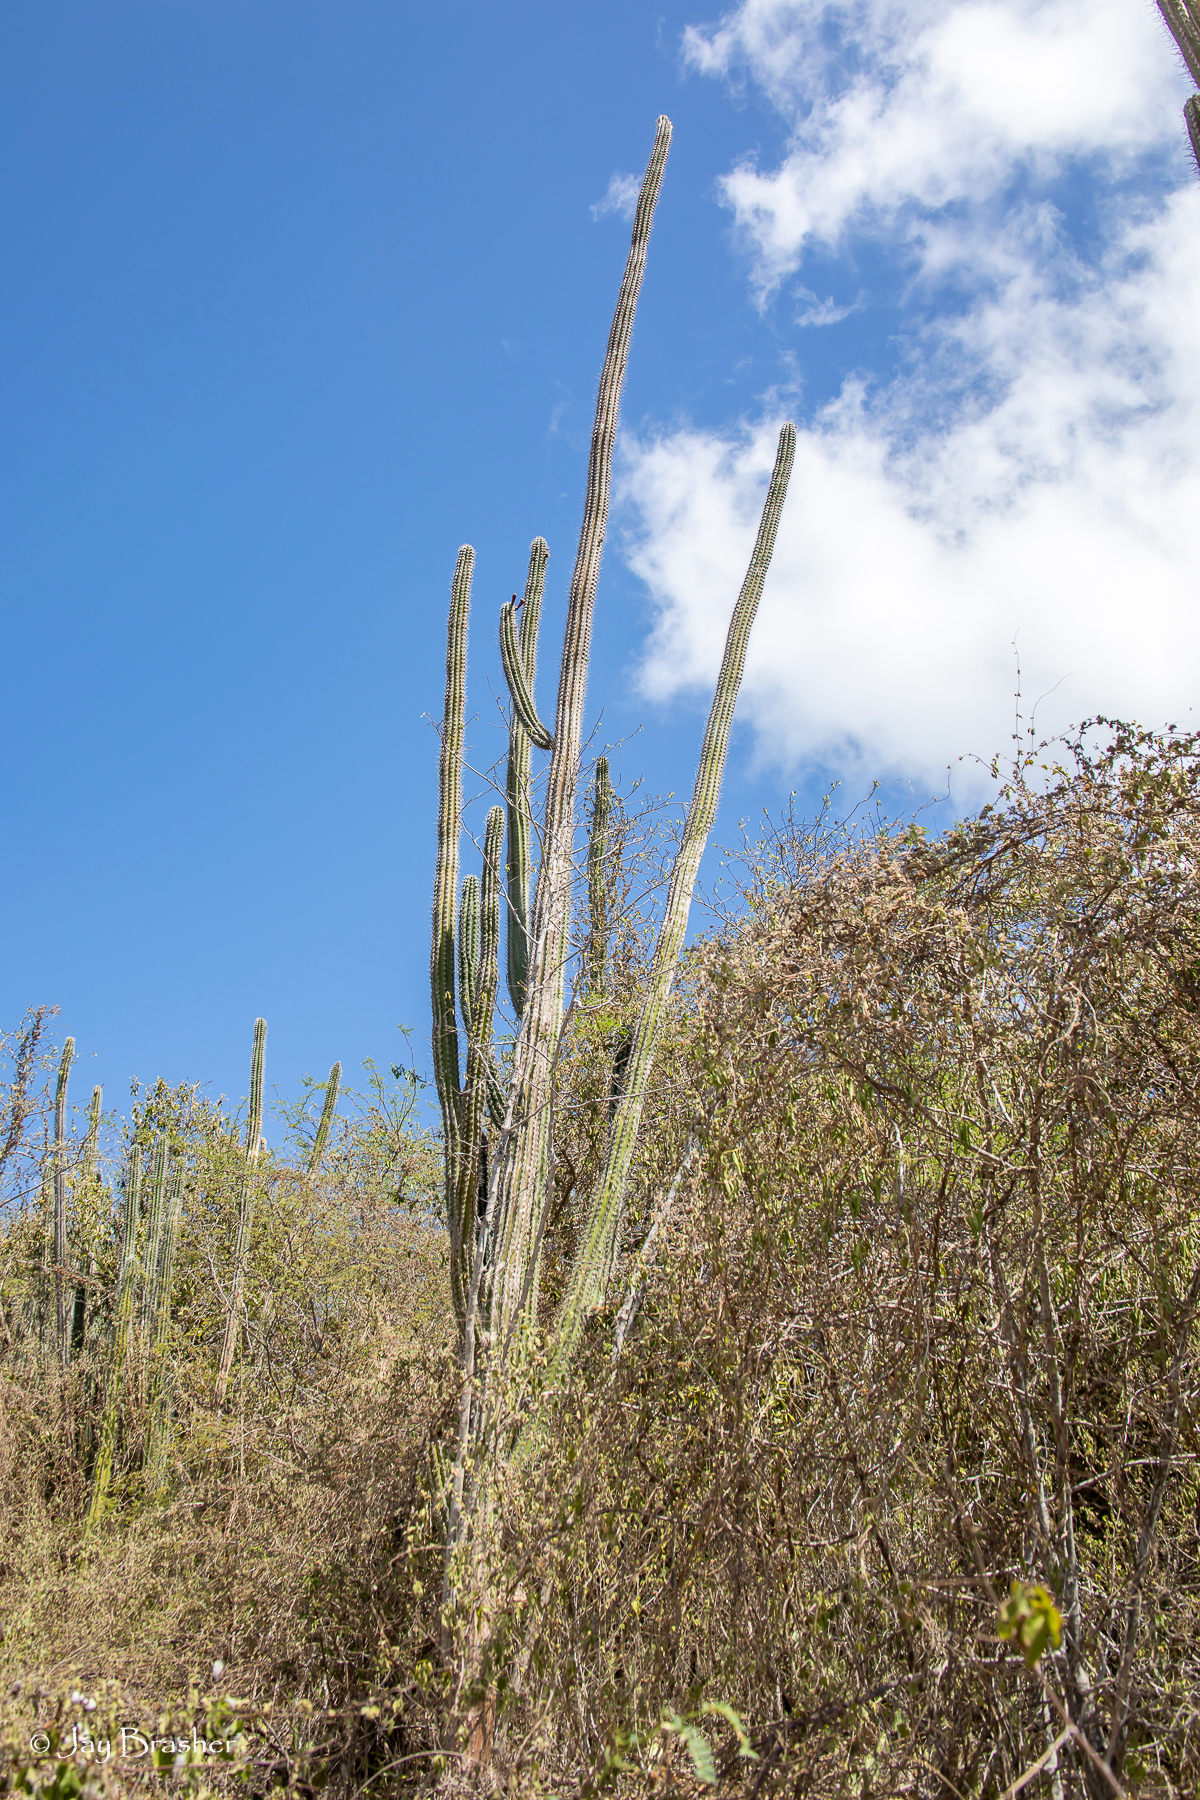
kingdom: Plantae
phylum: Tracheophyta
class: Magnoliopsida
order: Caryophyllales
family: Cactaceae
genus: Stenocereus
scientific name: Stenocereus griseus
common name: Tall candelabra cactus
